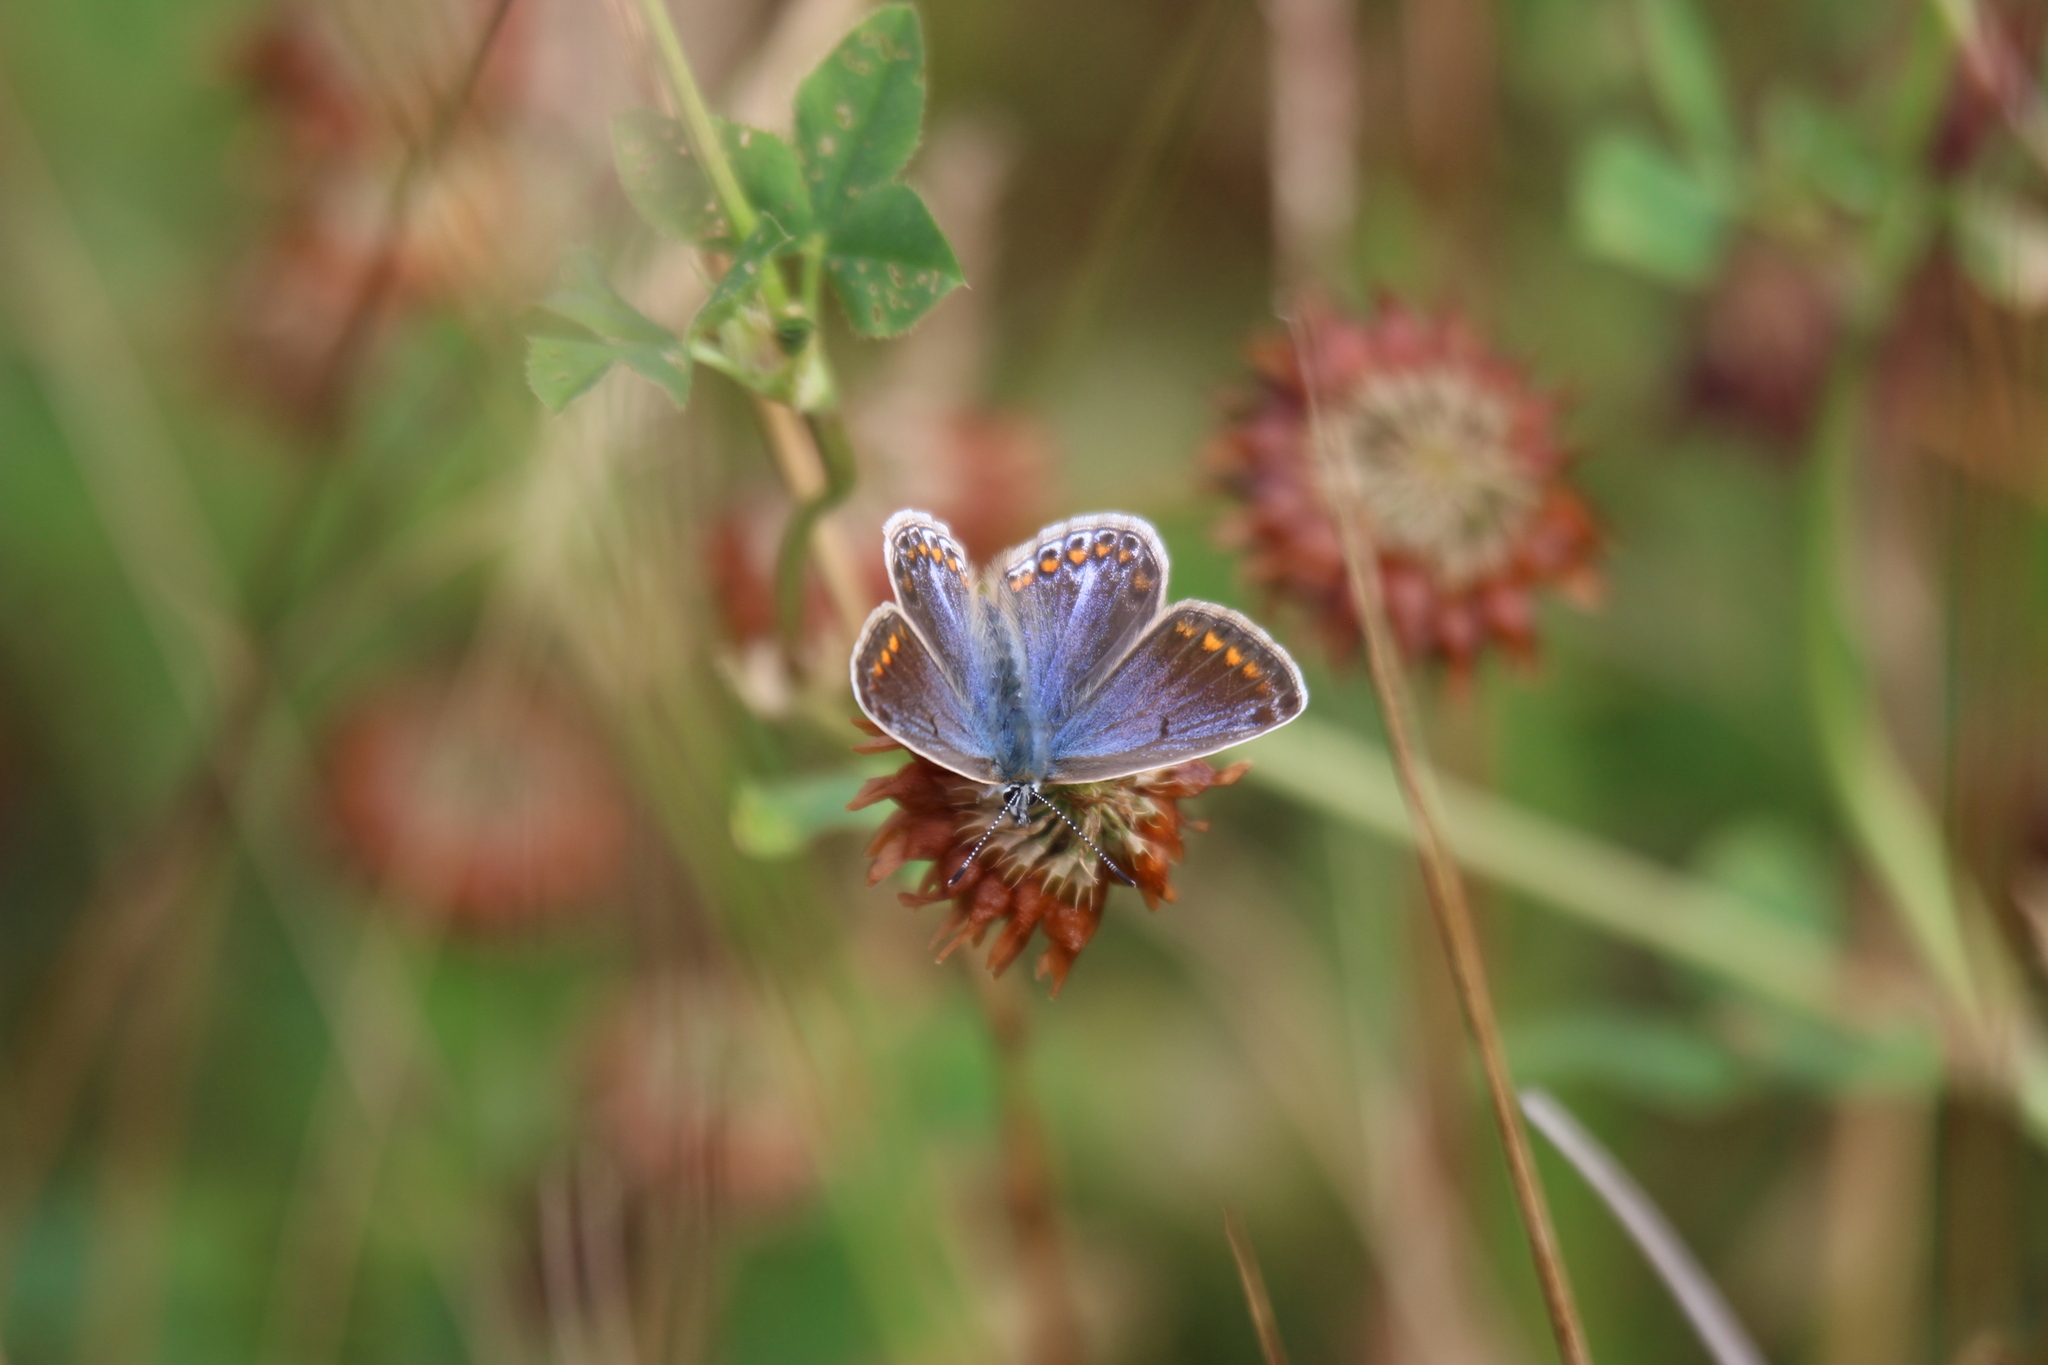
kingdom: Animalia
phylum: Arthropoda
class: Insecta
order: Lepidoptera
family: Lycaenidae
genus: Polyommatus
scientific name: Polyommatus icarus
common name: Common blue
